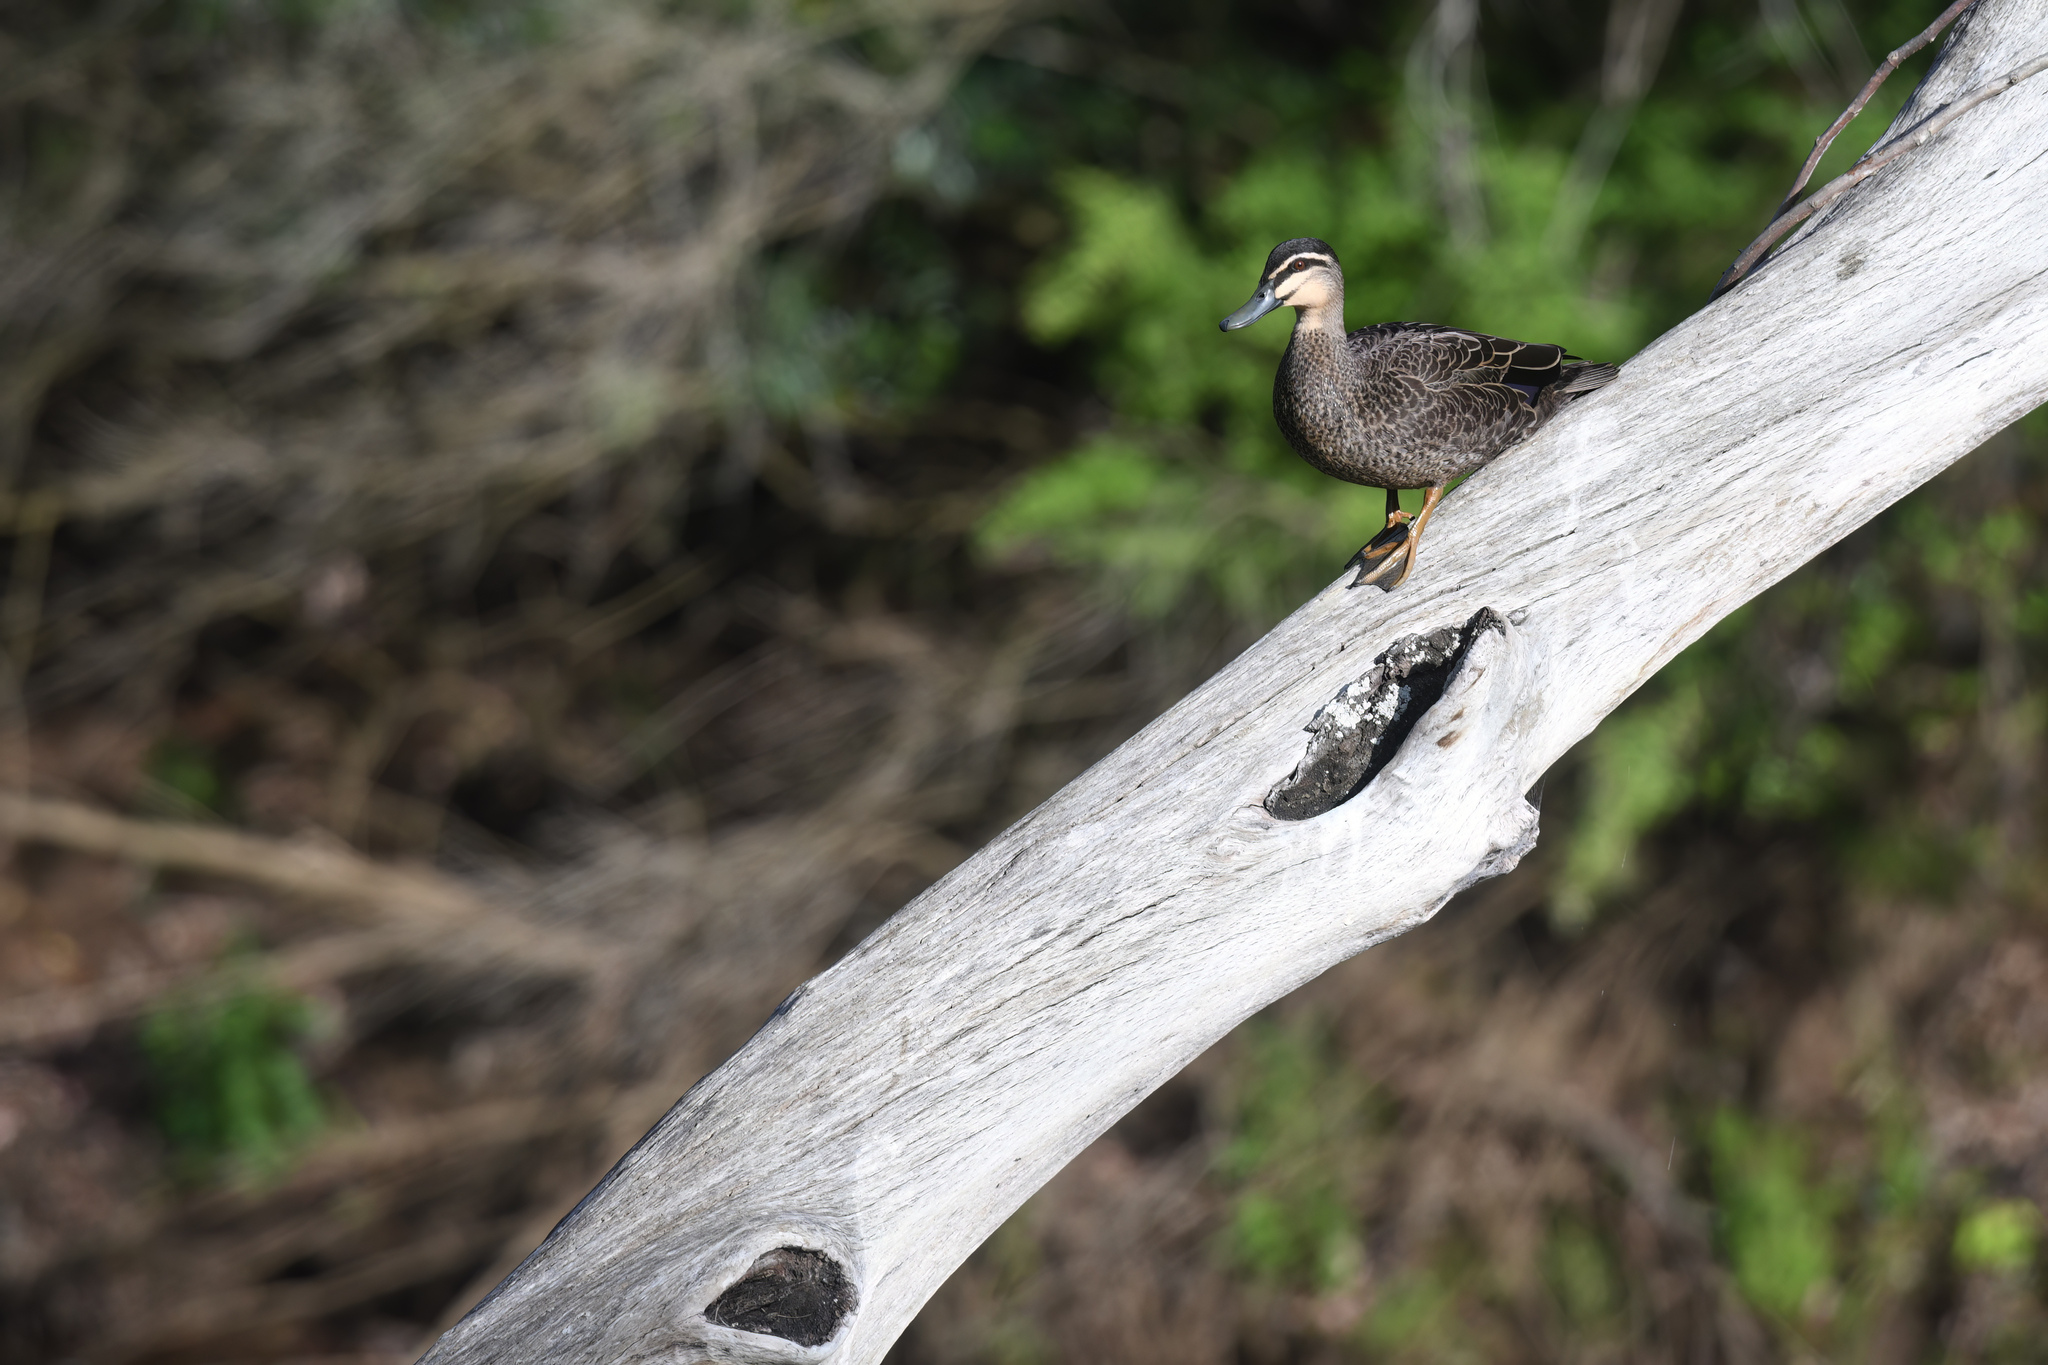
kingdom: Animalia
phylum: Chordata
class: Aves
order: Anseriformes
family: Anatidae
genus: Anas
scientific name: Anas superciliosa
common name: Pacific black duck
